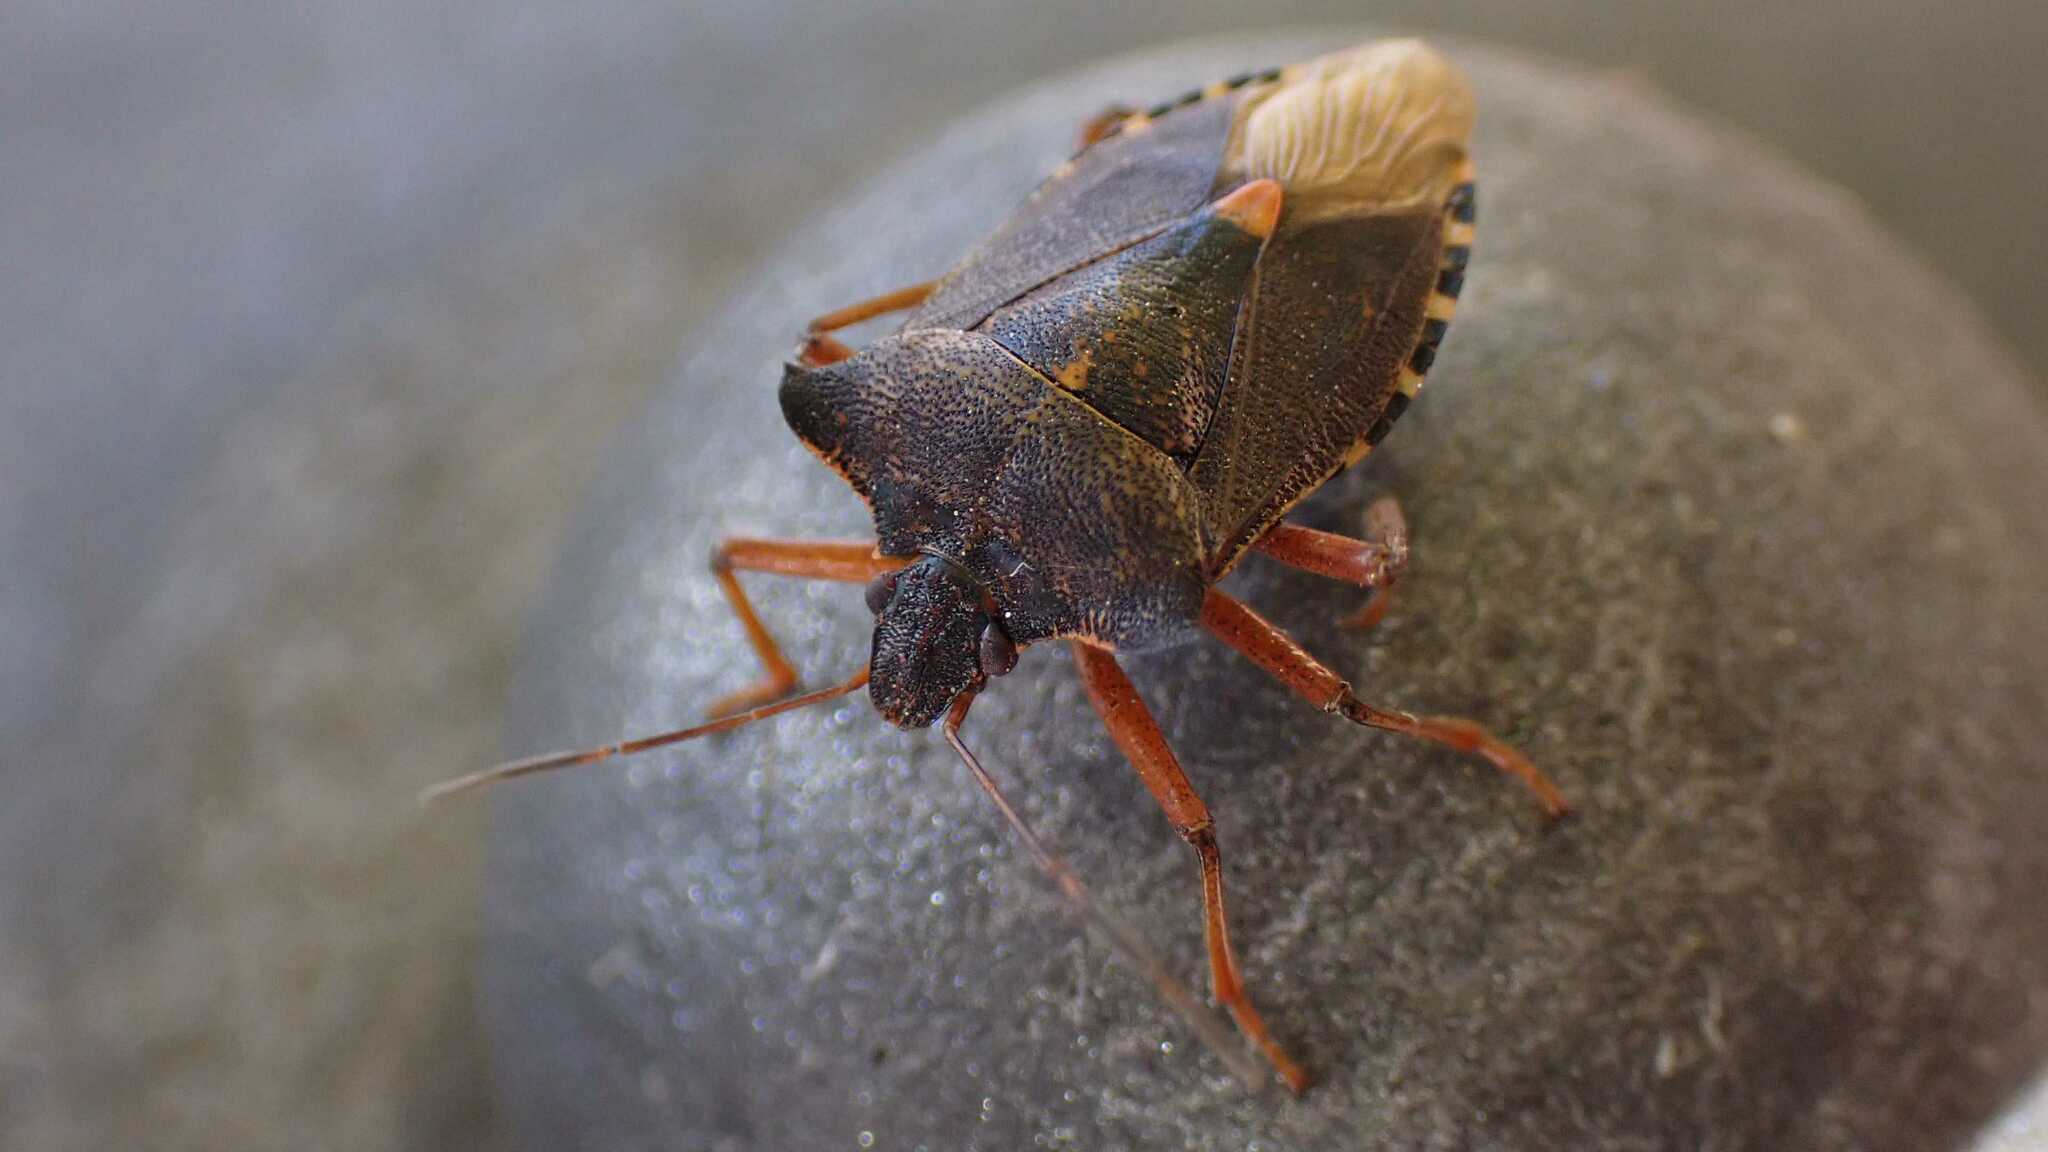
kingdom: Animalia
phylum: Arthropoda
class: Insecta
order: Hemiptera
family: Pentatomidae
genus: Pentatoma
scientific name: Pentatoma rufipes
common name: Forest bug
